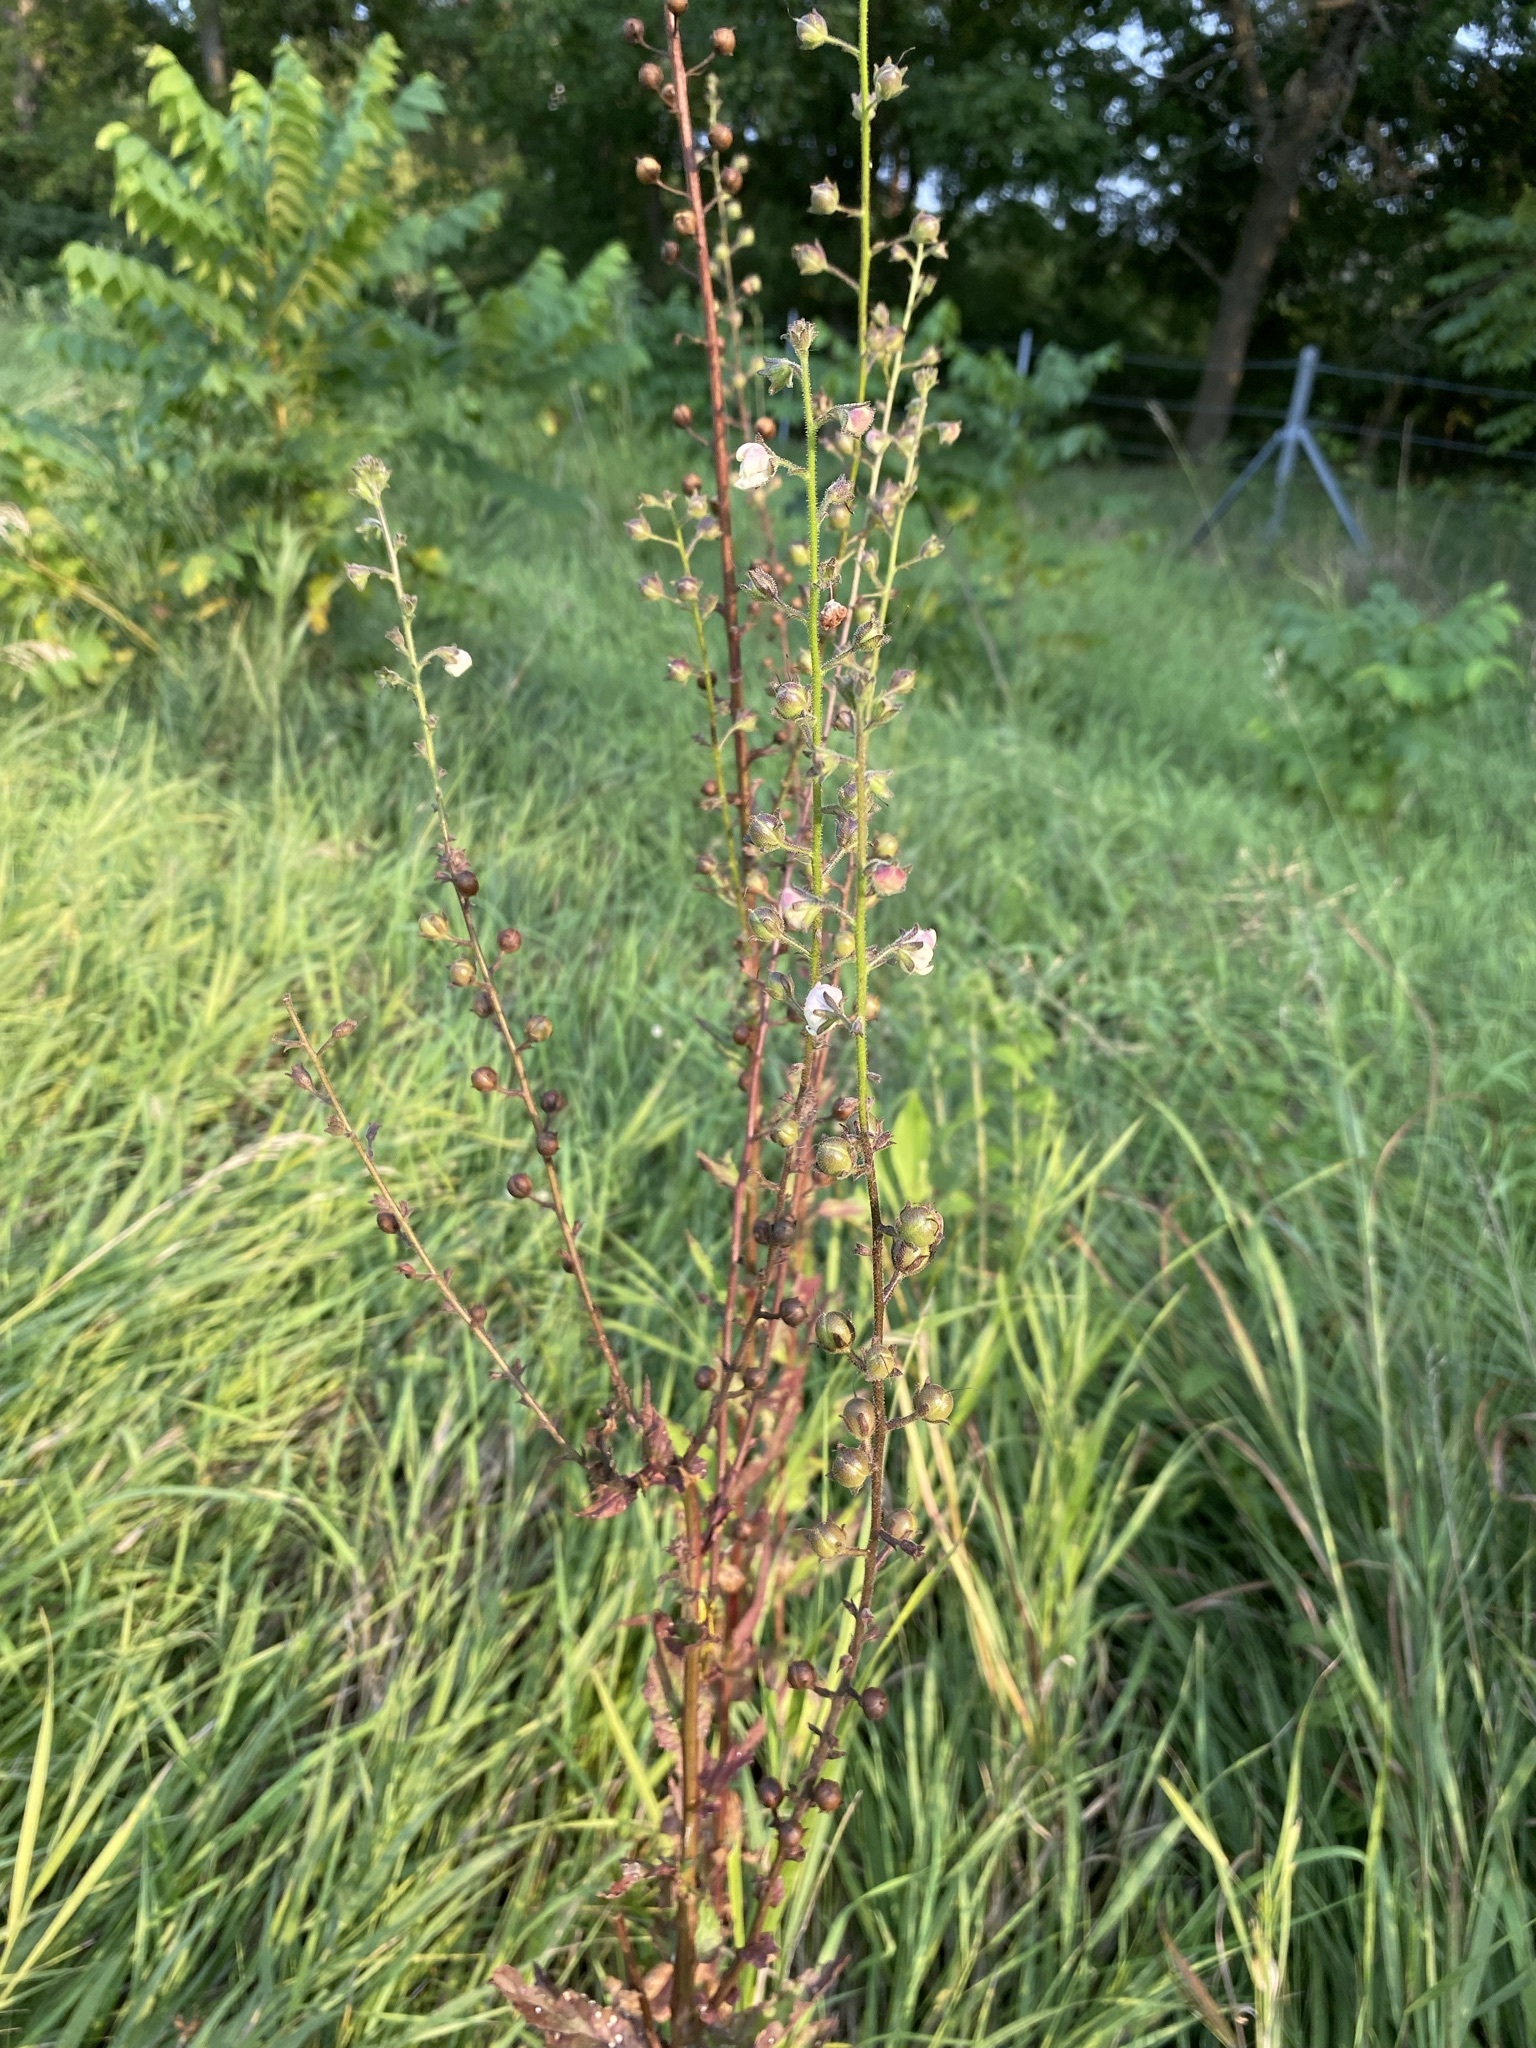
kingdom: Plantae
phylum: Tracheophyta
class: Magnoliopsida
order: Lamiales
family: Scrophulariaceae
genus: Verbascum
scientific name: Verbascum blattaria
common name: Moth mullein
